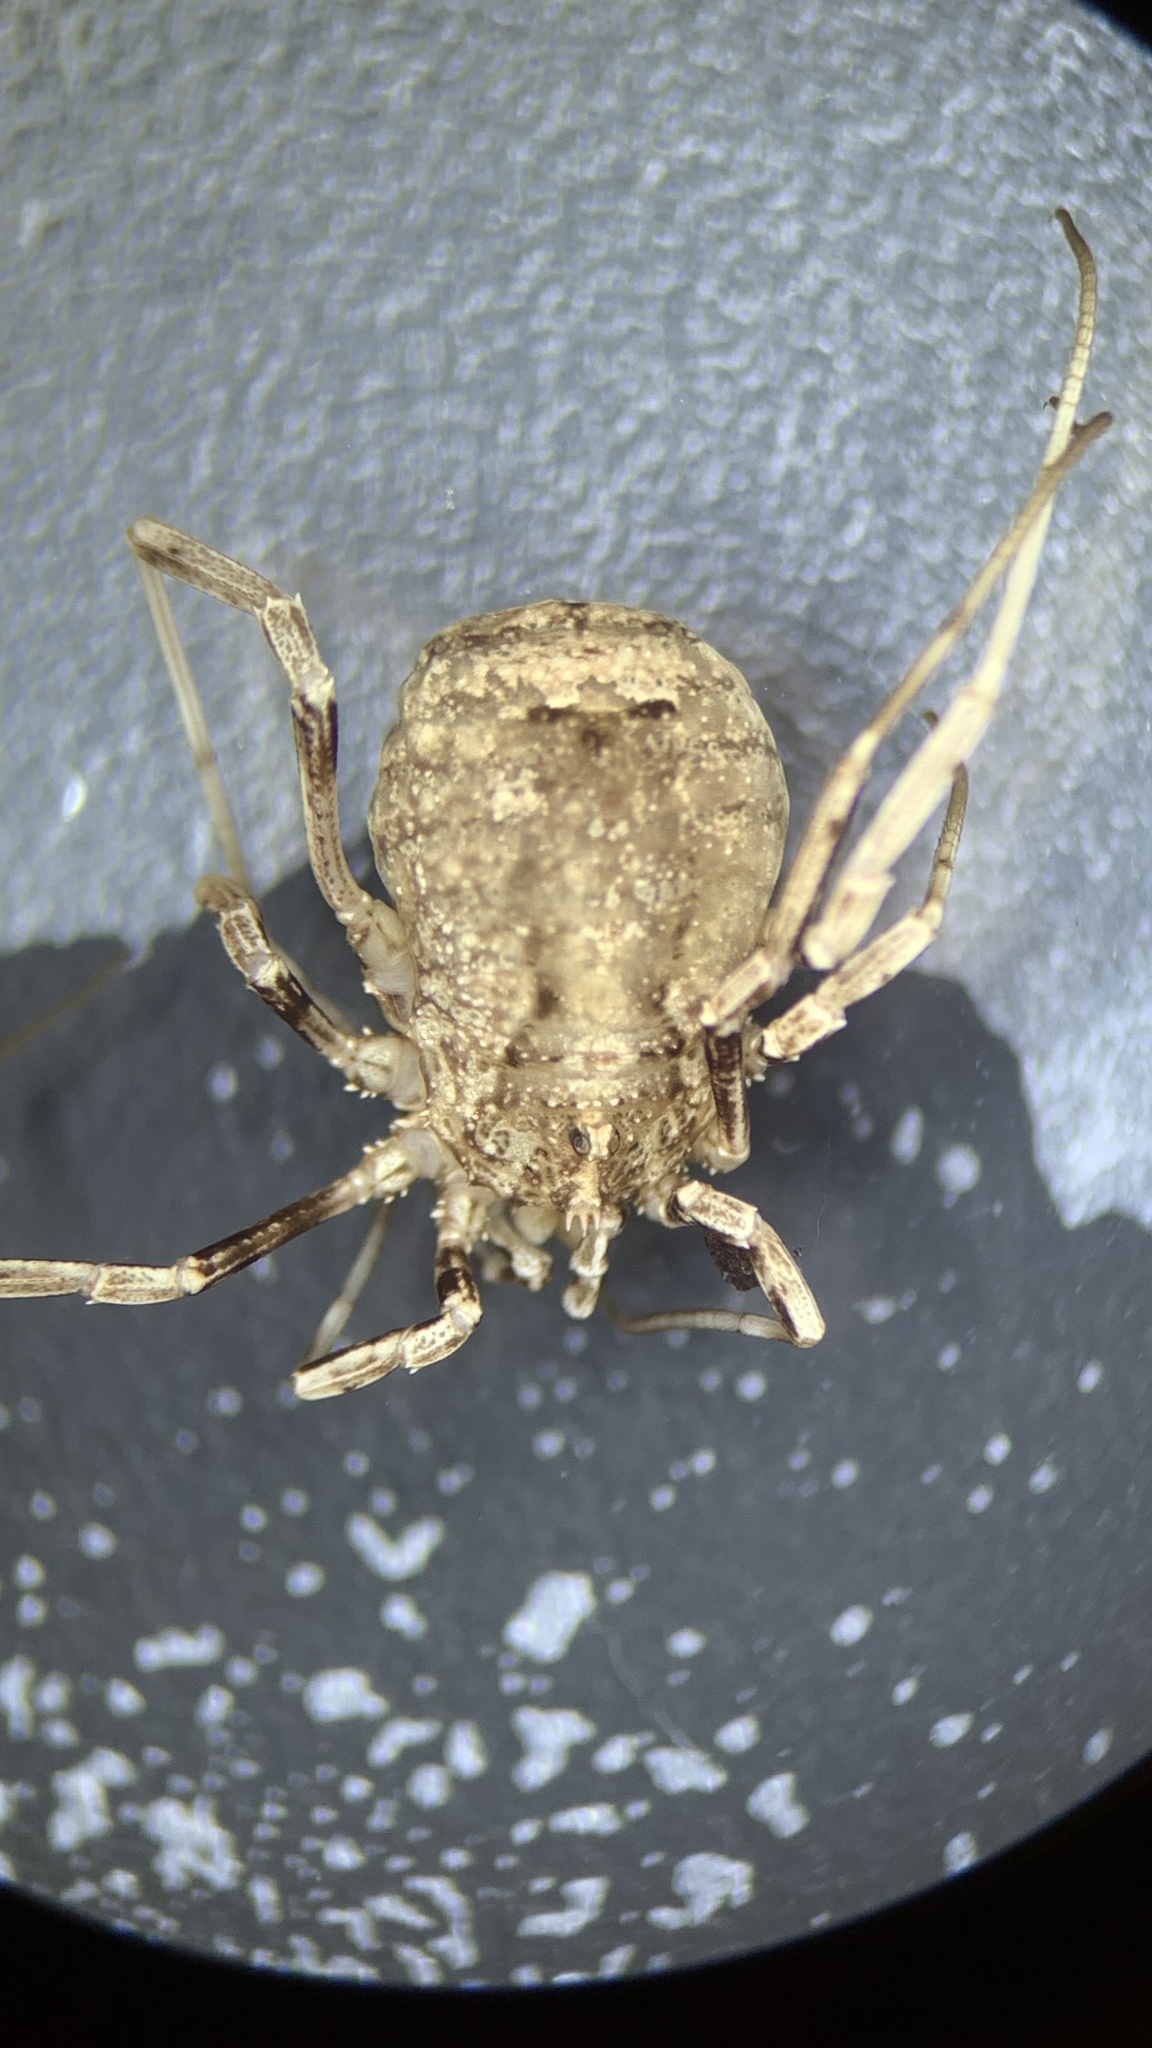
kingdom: Animalia
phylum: Arthropoda
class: Arachnida
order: Opiliones
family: Phalangiidae
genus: Odiellus
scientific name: Odiellus spinosus
